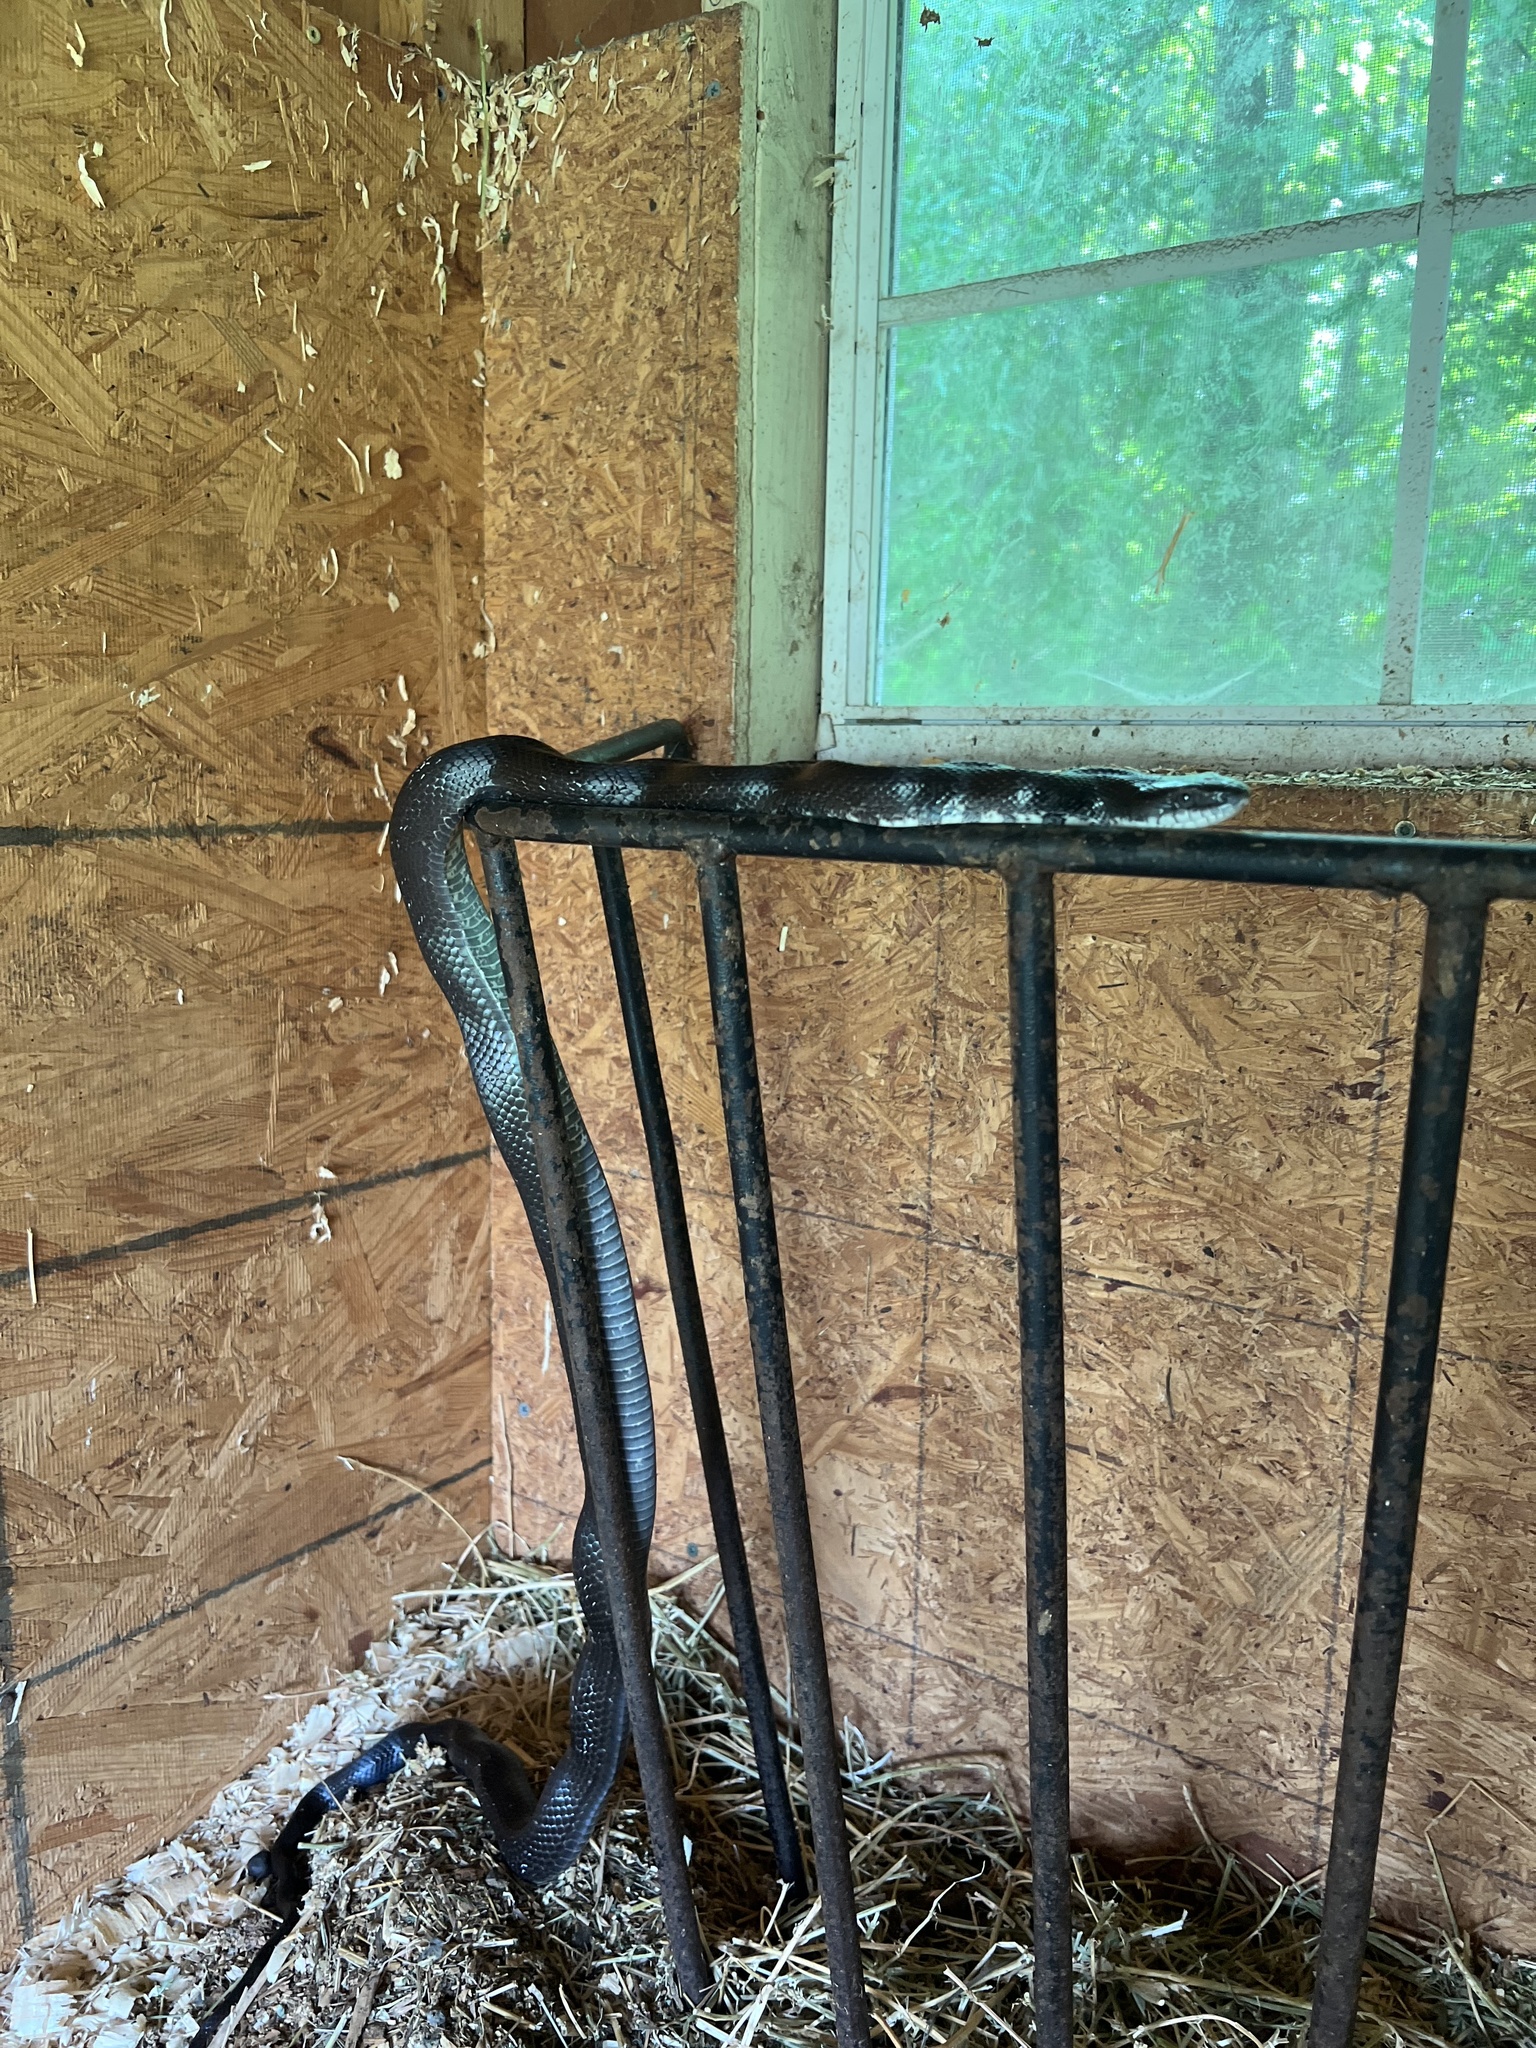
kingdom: Animalia
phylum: Chordata
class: Squamata
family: Colubridae
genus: Pantherophis
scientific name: Pantherophis alleghaniensis
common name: Eastern rat snake
